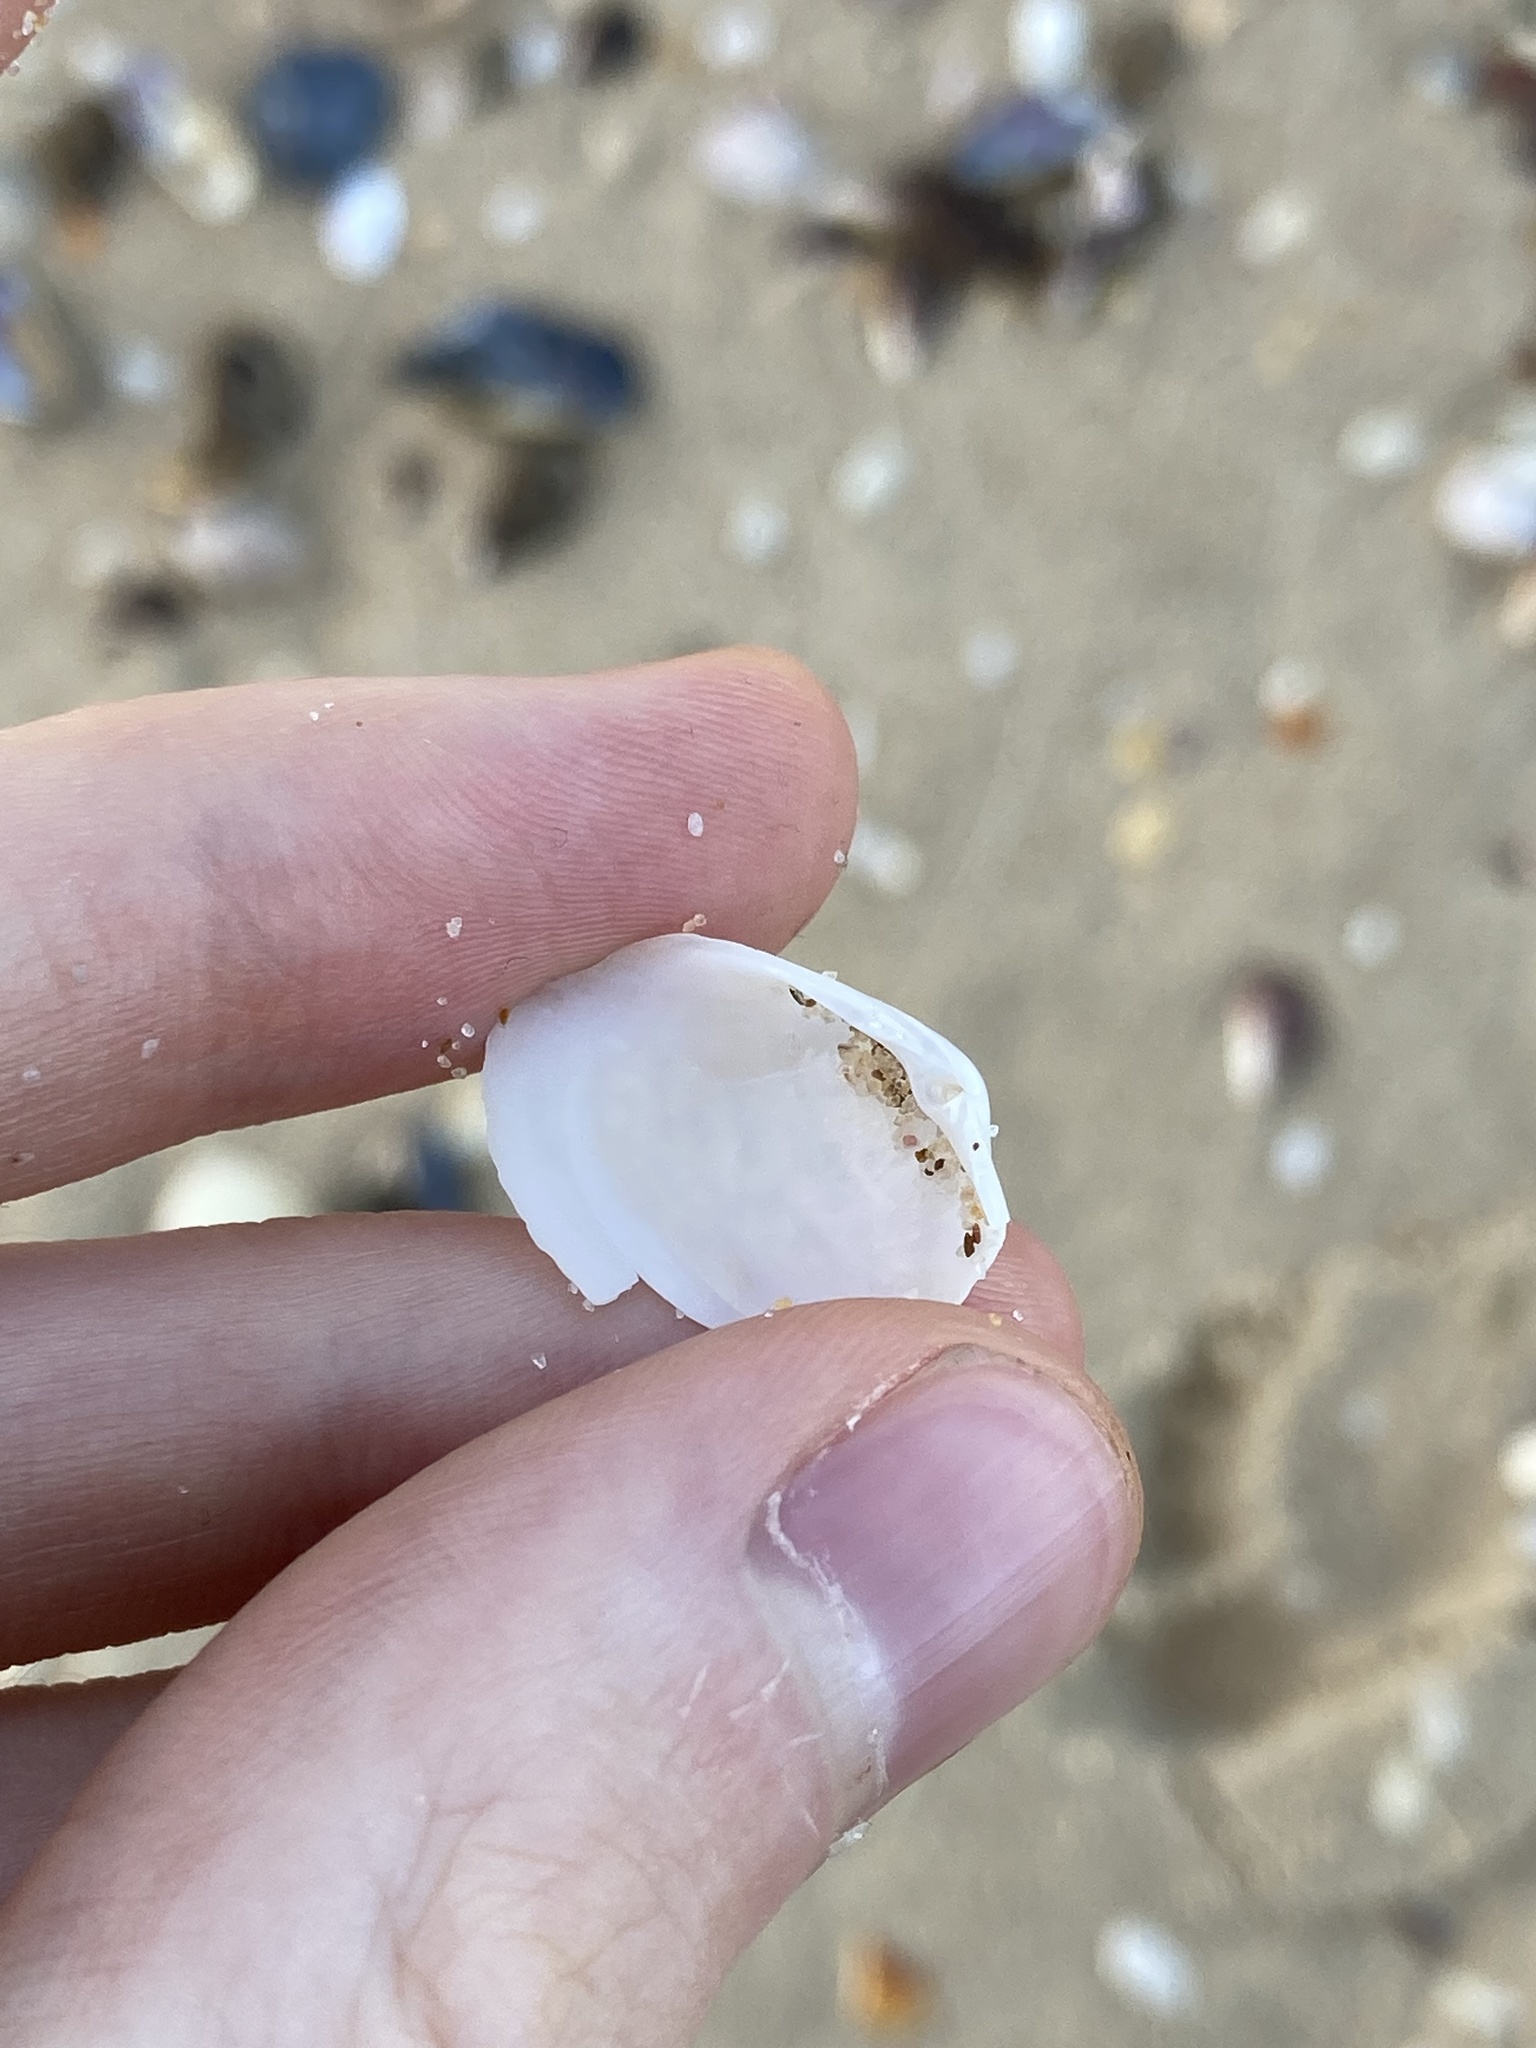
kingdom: Animalia
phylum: Mollusca
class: Bivalvia
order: Venerida
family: Mactridae
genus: Mactrotoma
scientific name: Mactrotoma antecedens
